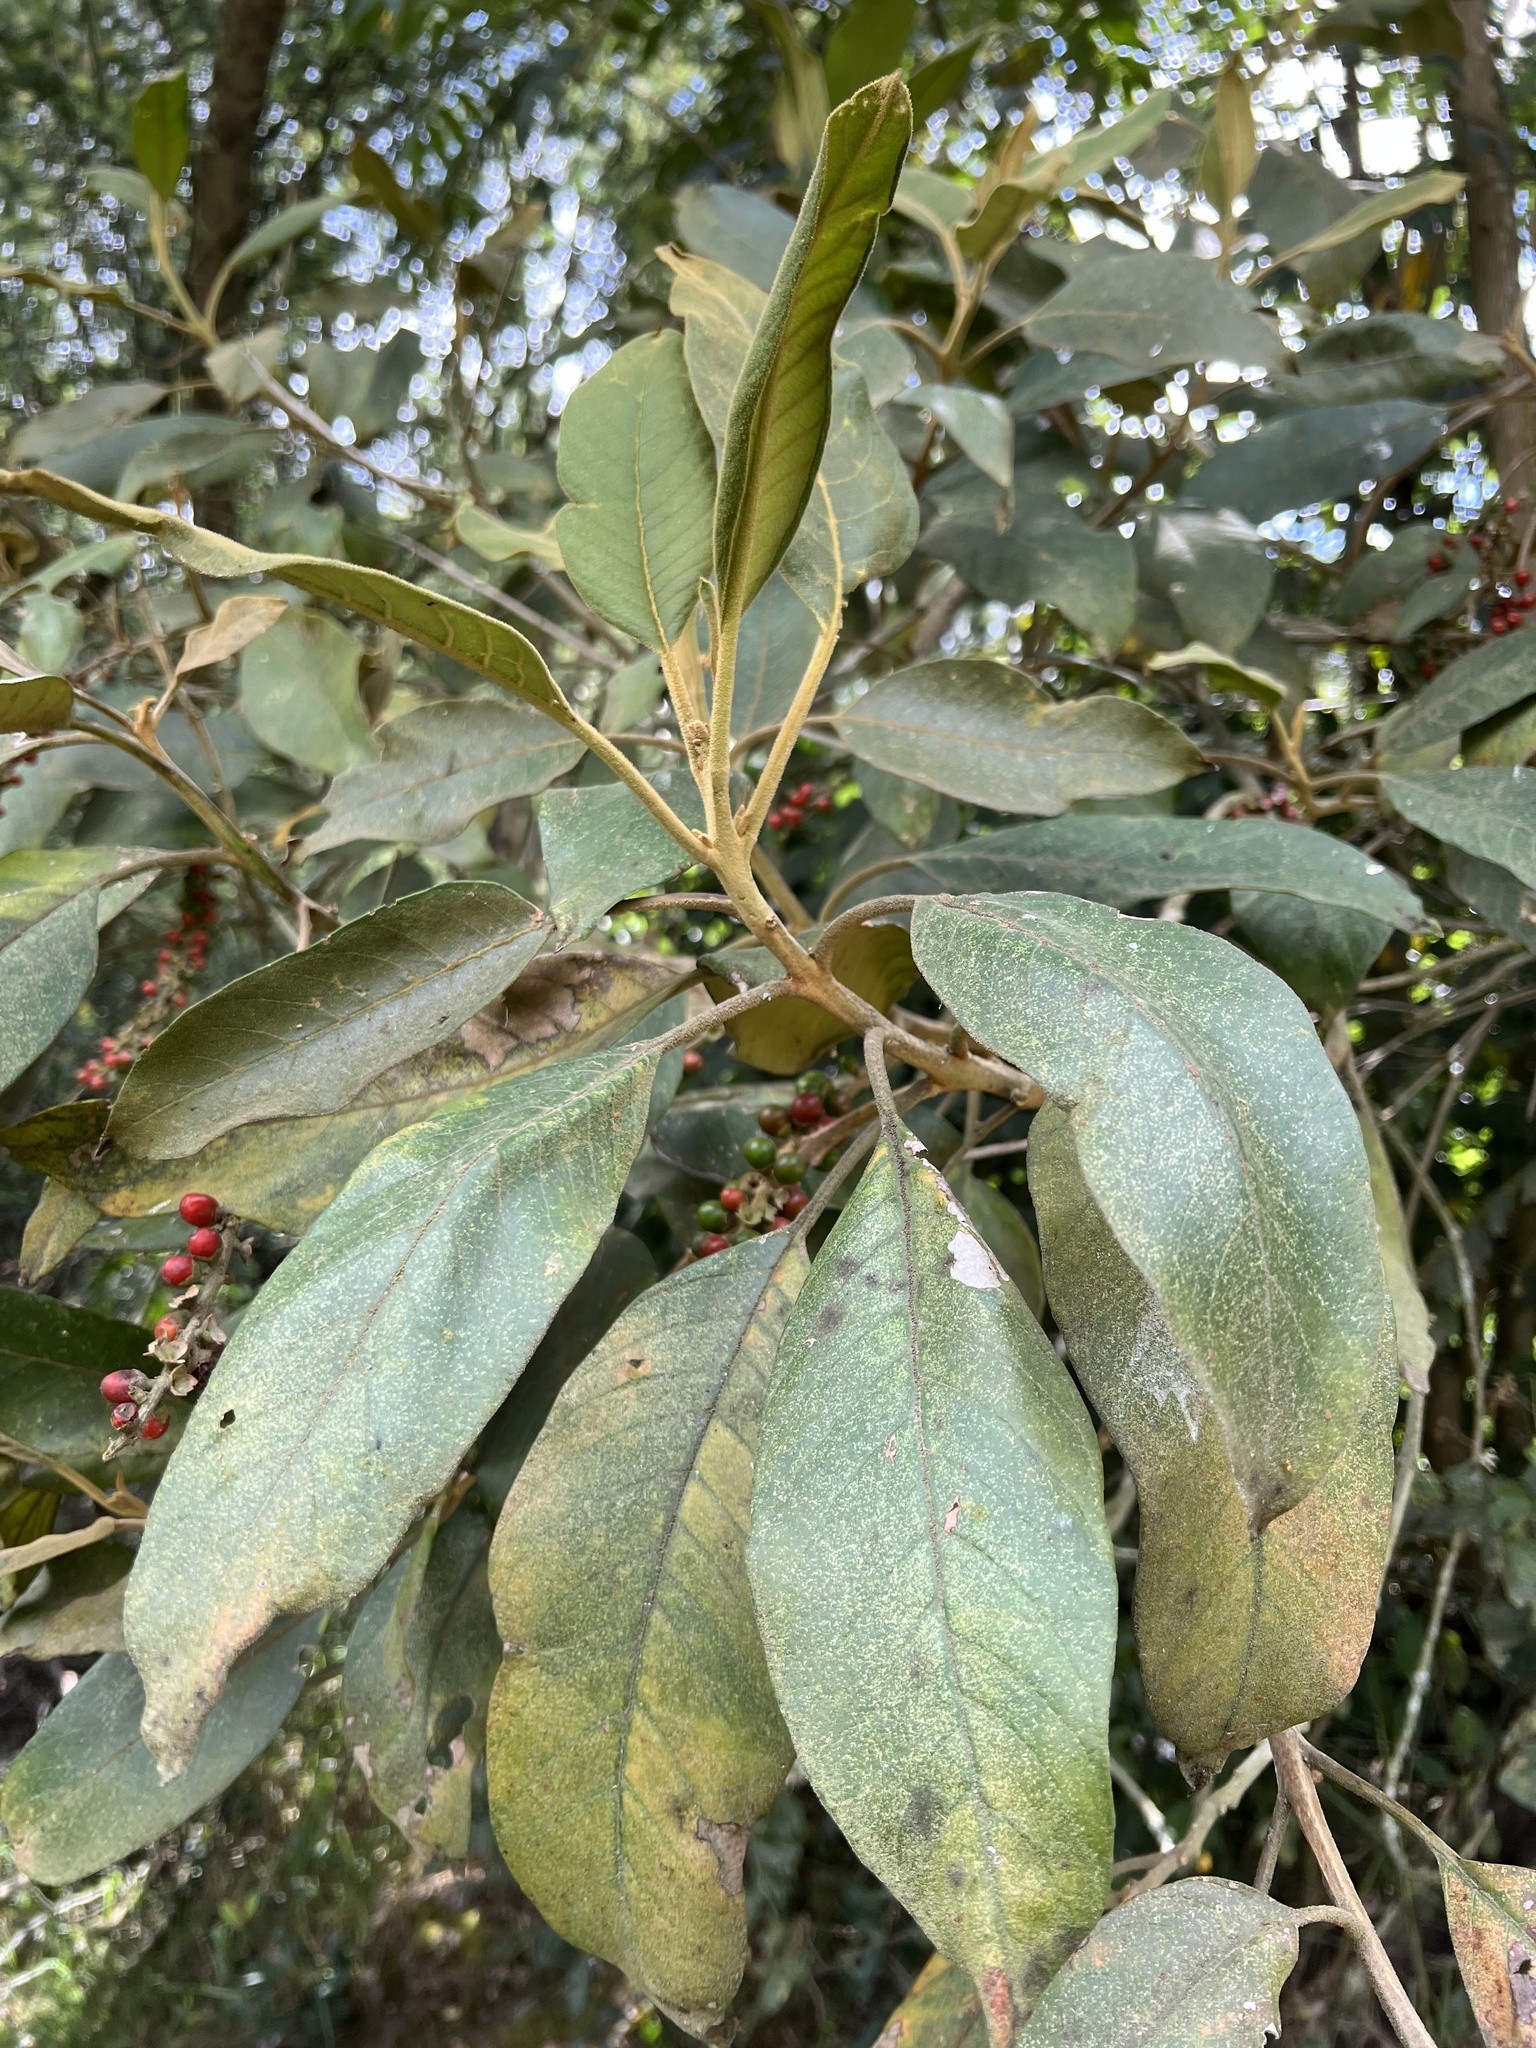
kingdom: Plantae
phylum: Tracheophyta
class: Magnoliopsida
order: Lamiales
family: Verbenaceae
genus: Citharexylum
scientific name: Citharexylum subflavescens
